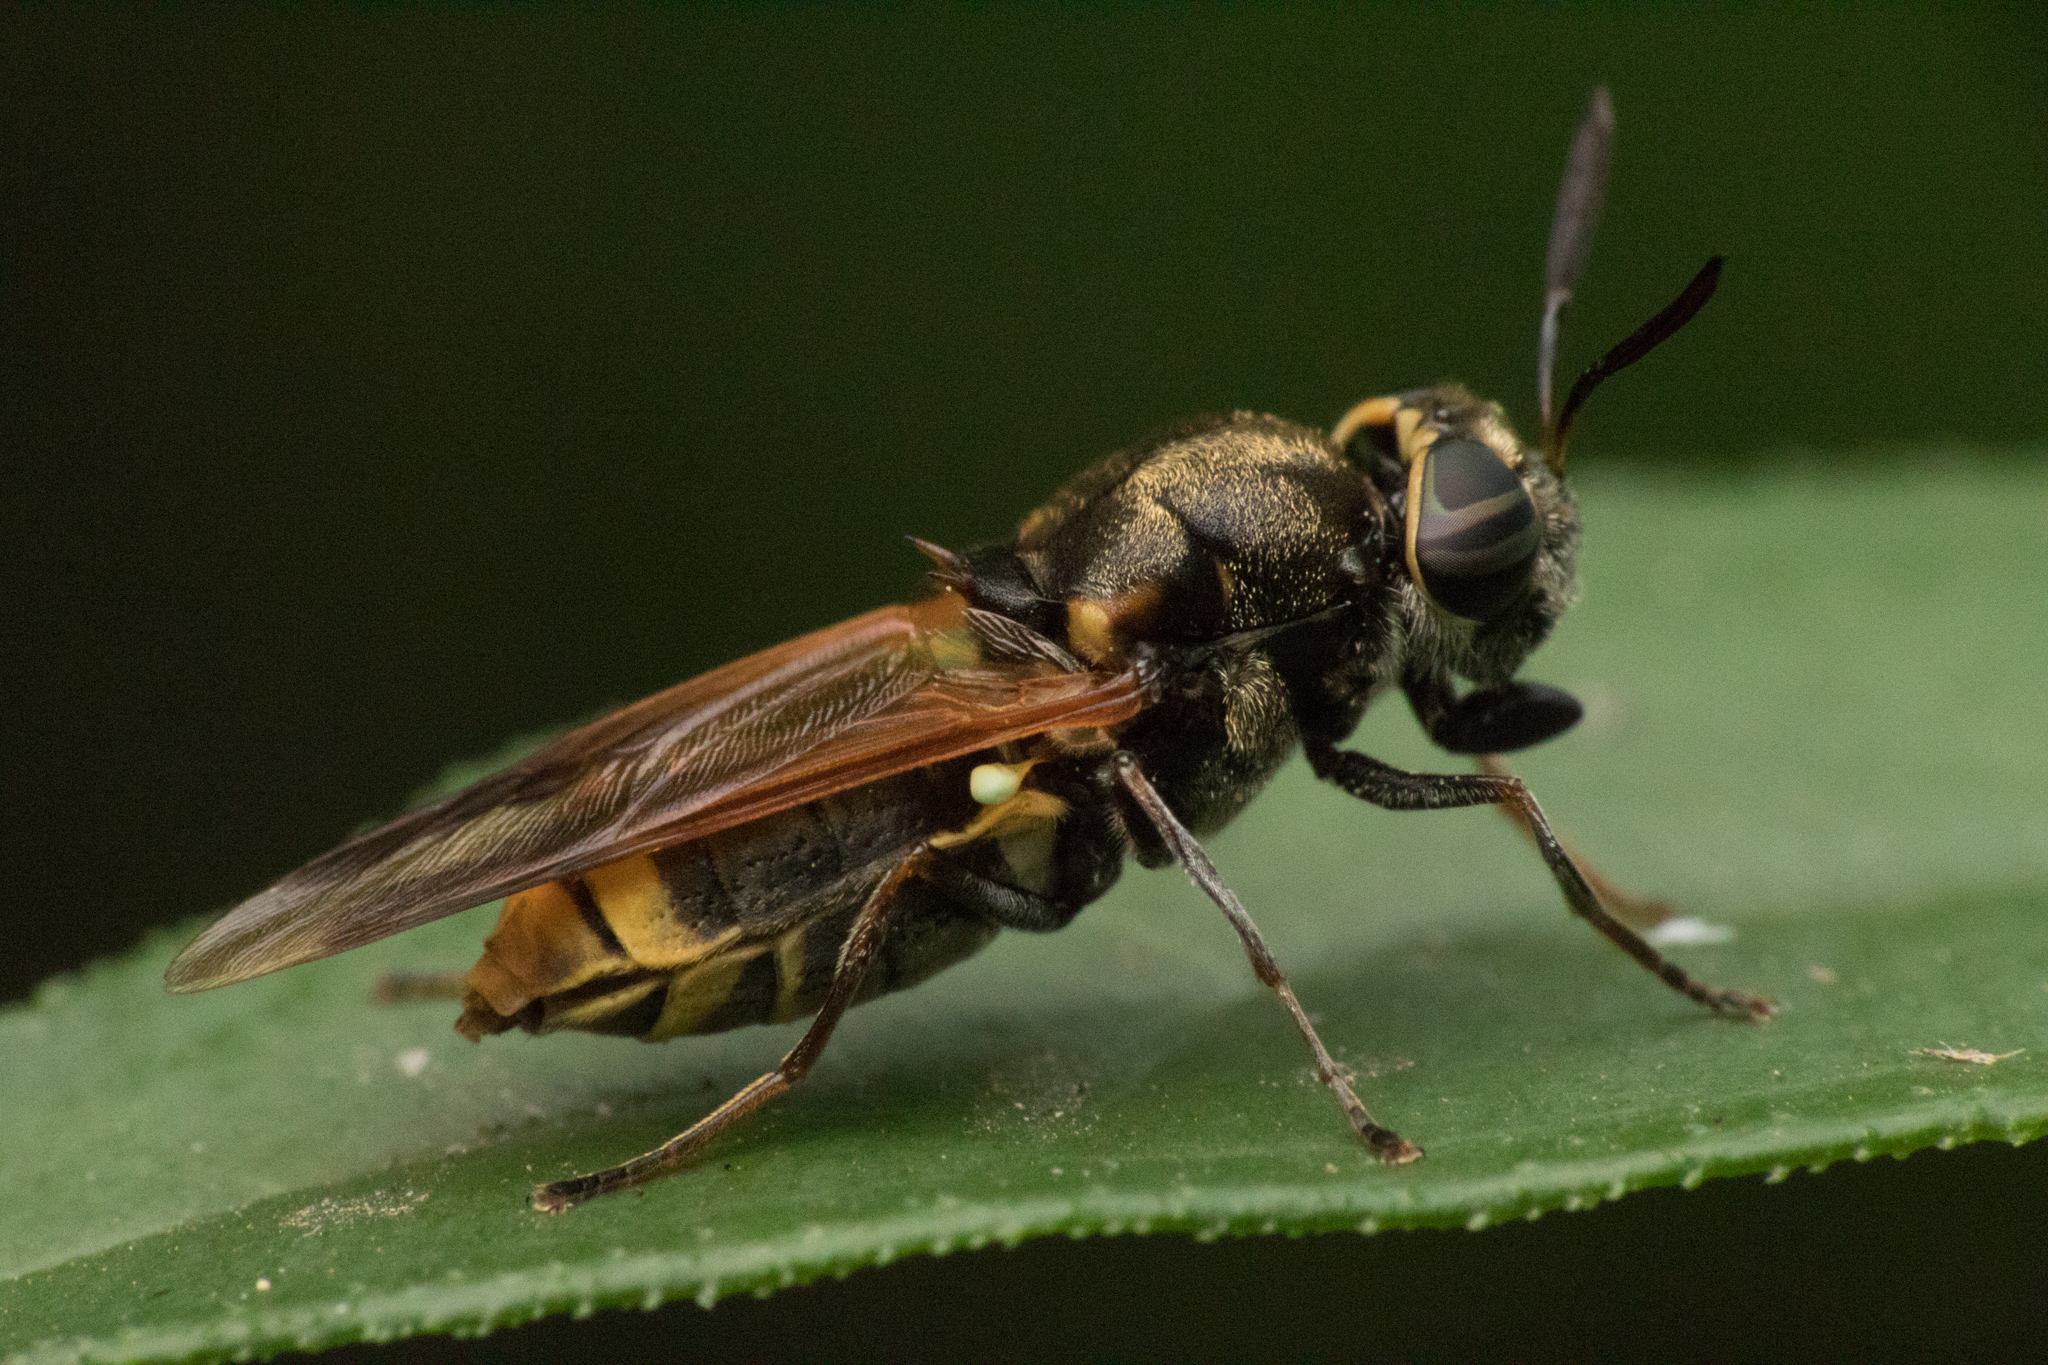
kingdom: Animalia
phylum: Arthropoda
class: Insecta
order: Diptera
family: Stratiomyidae
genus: Hoplitimyia
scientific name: Hoplitimyia mutabilis
